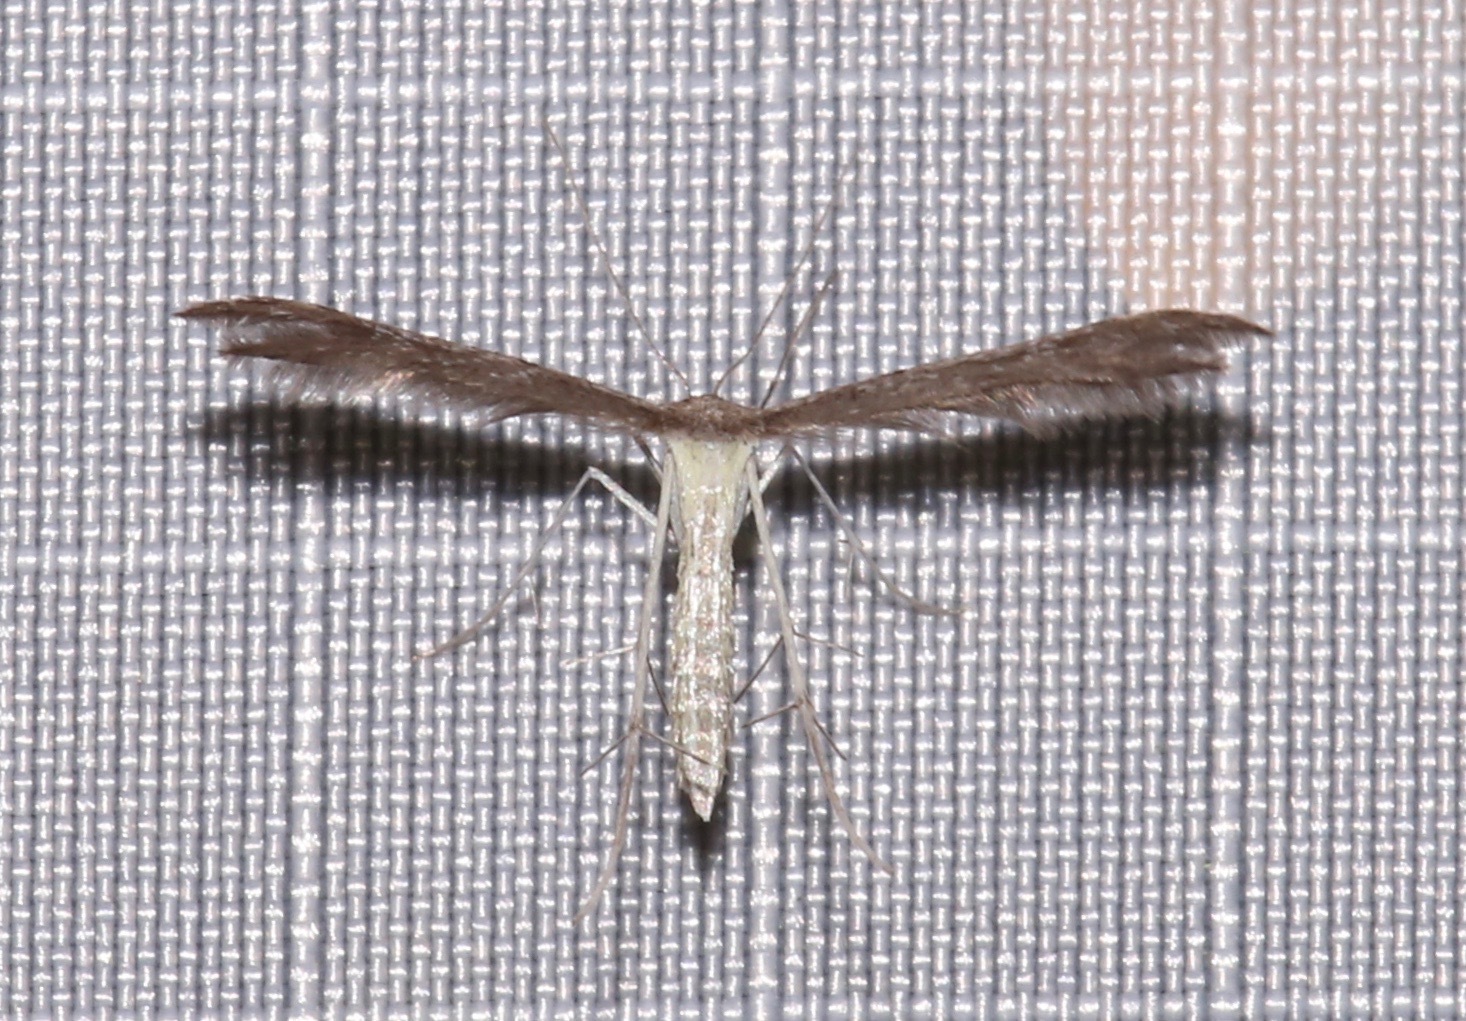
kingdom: Animalia
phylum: Arthropoda
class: Insecta
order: Lepidoptera
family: Pterophoridae
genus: Pselnophorus
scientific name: Pselnophorus hodgesi
